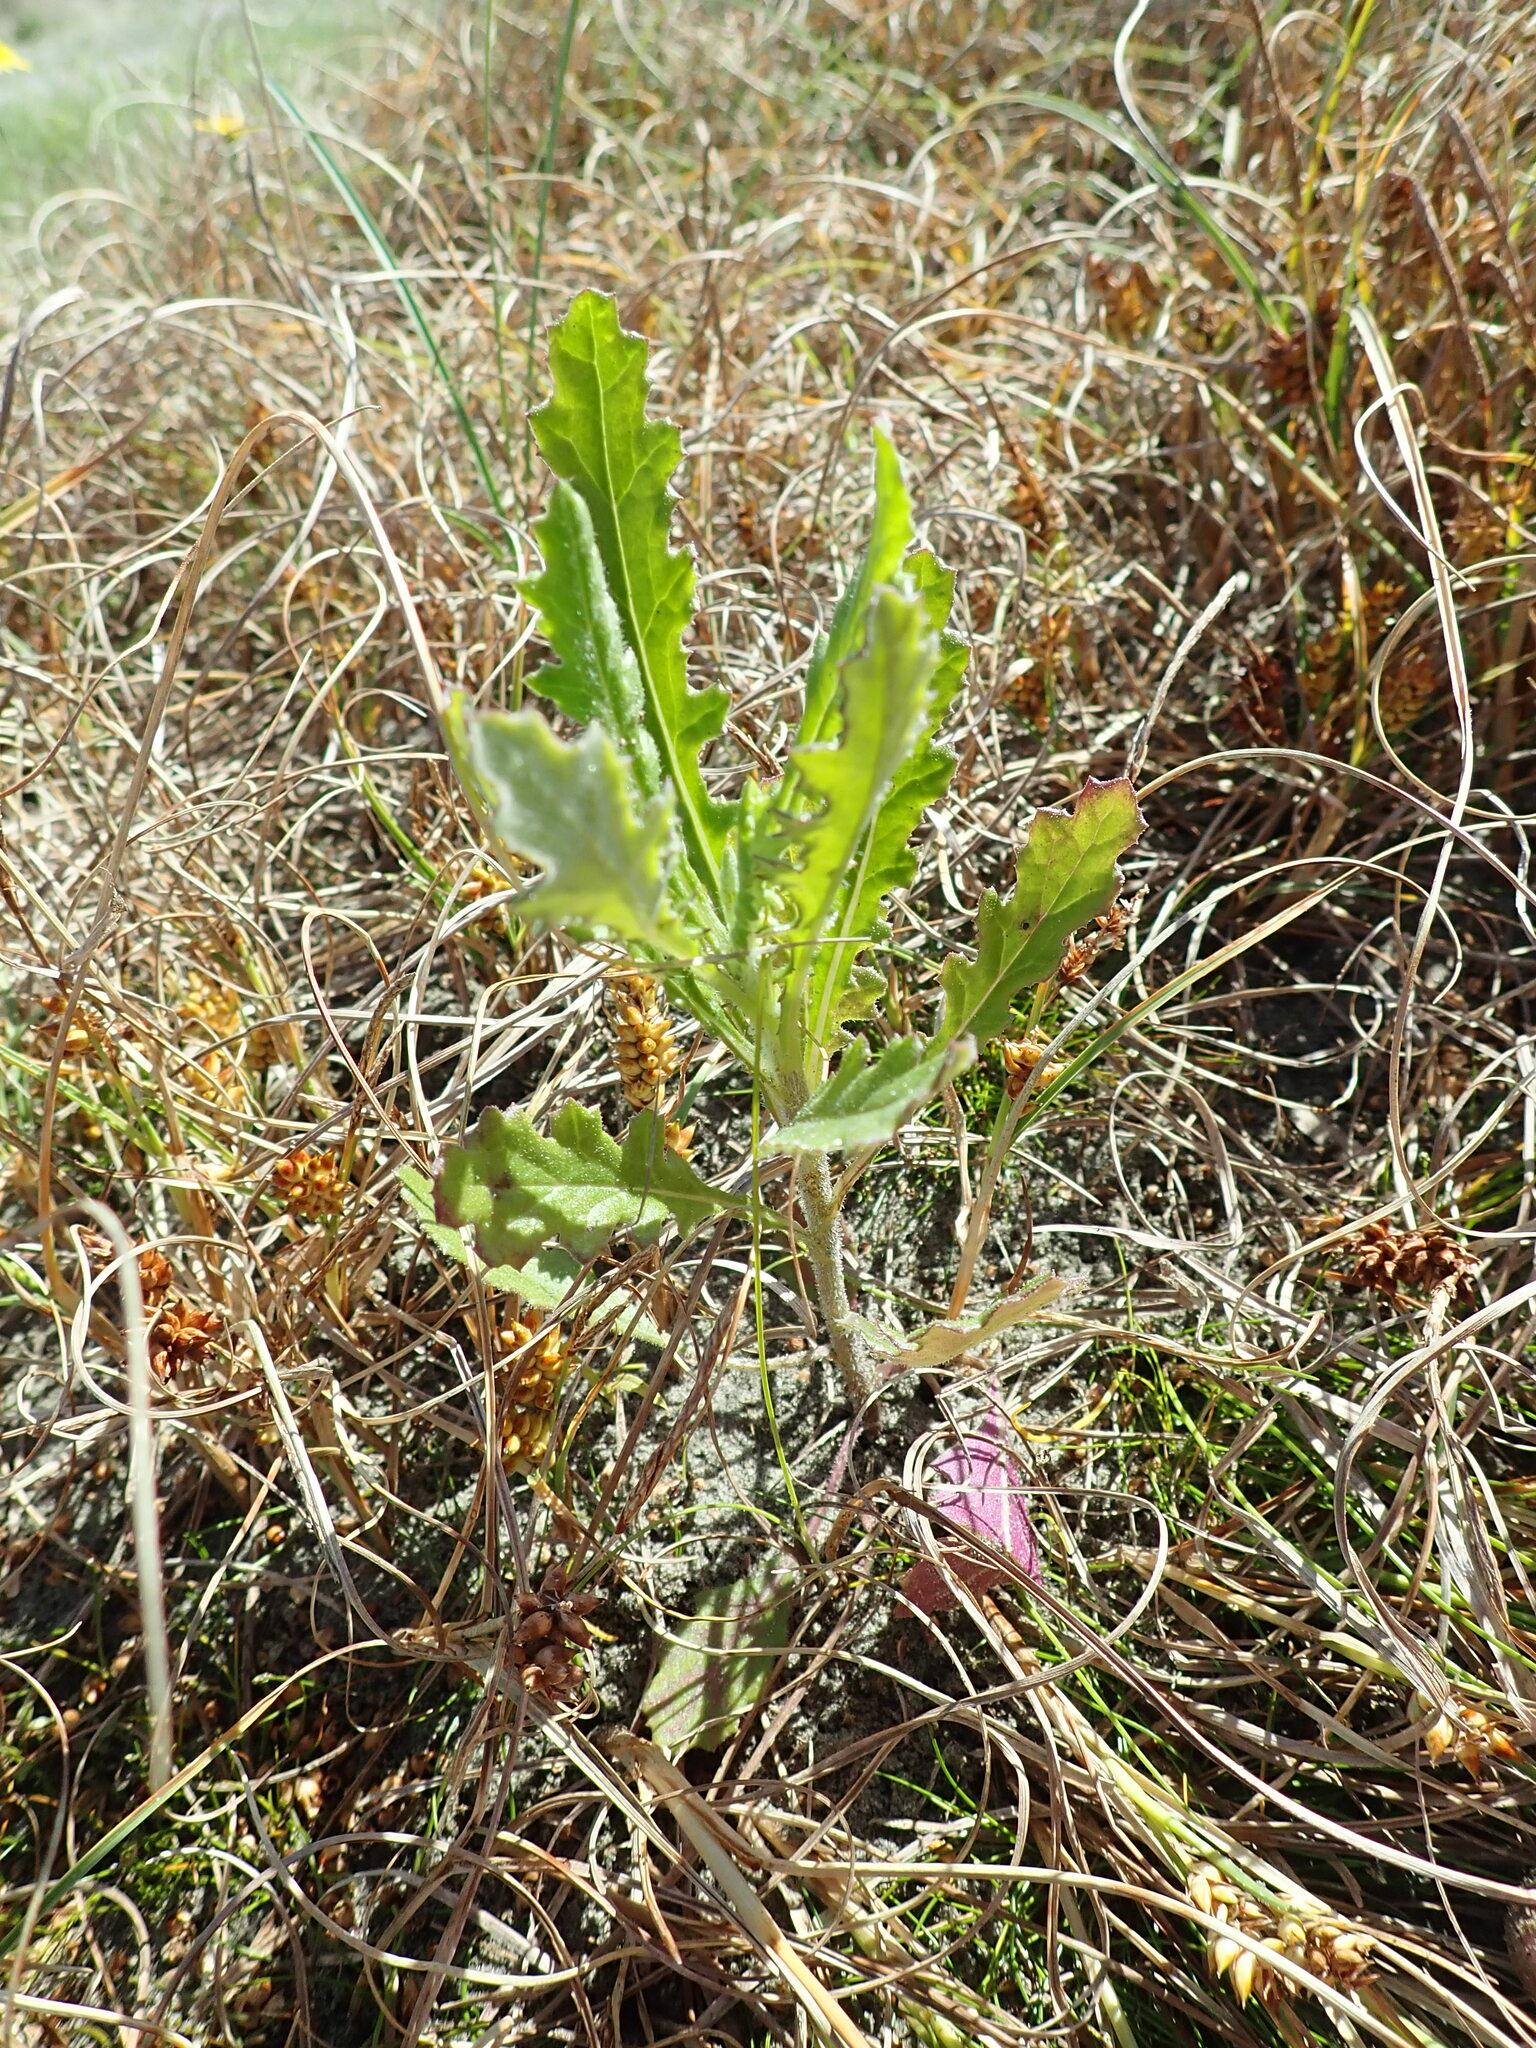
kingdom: Plantae
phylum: Tracheophyta
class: Magnoliopsida
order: Asterales
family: Asteraceae
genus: Senecio
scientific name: Senecio glomeratus
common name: Cutleaf burnweed
